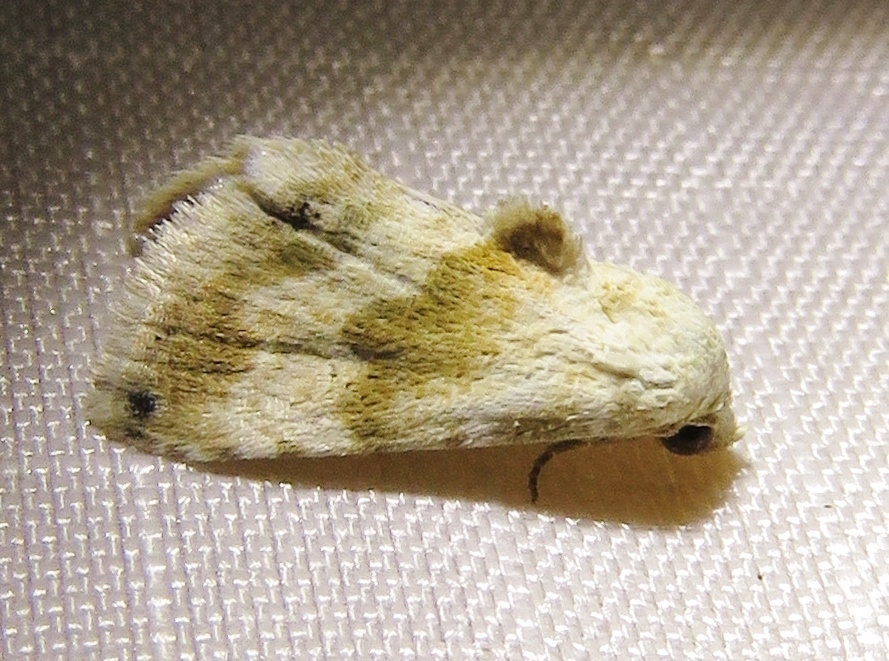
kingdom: Animalia
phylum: Arthropoda
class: Insecta
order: Lepidoptera
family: Noctuidae
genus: Eublemma
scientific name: Eublemma minima
